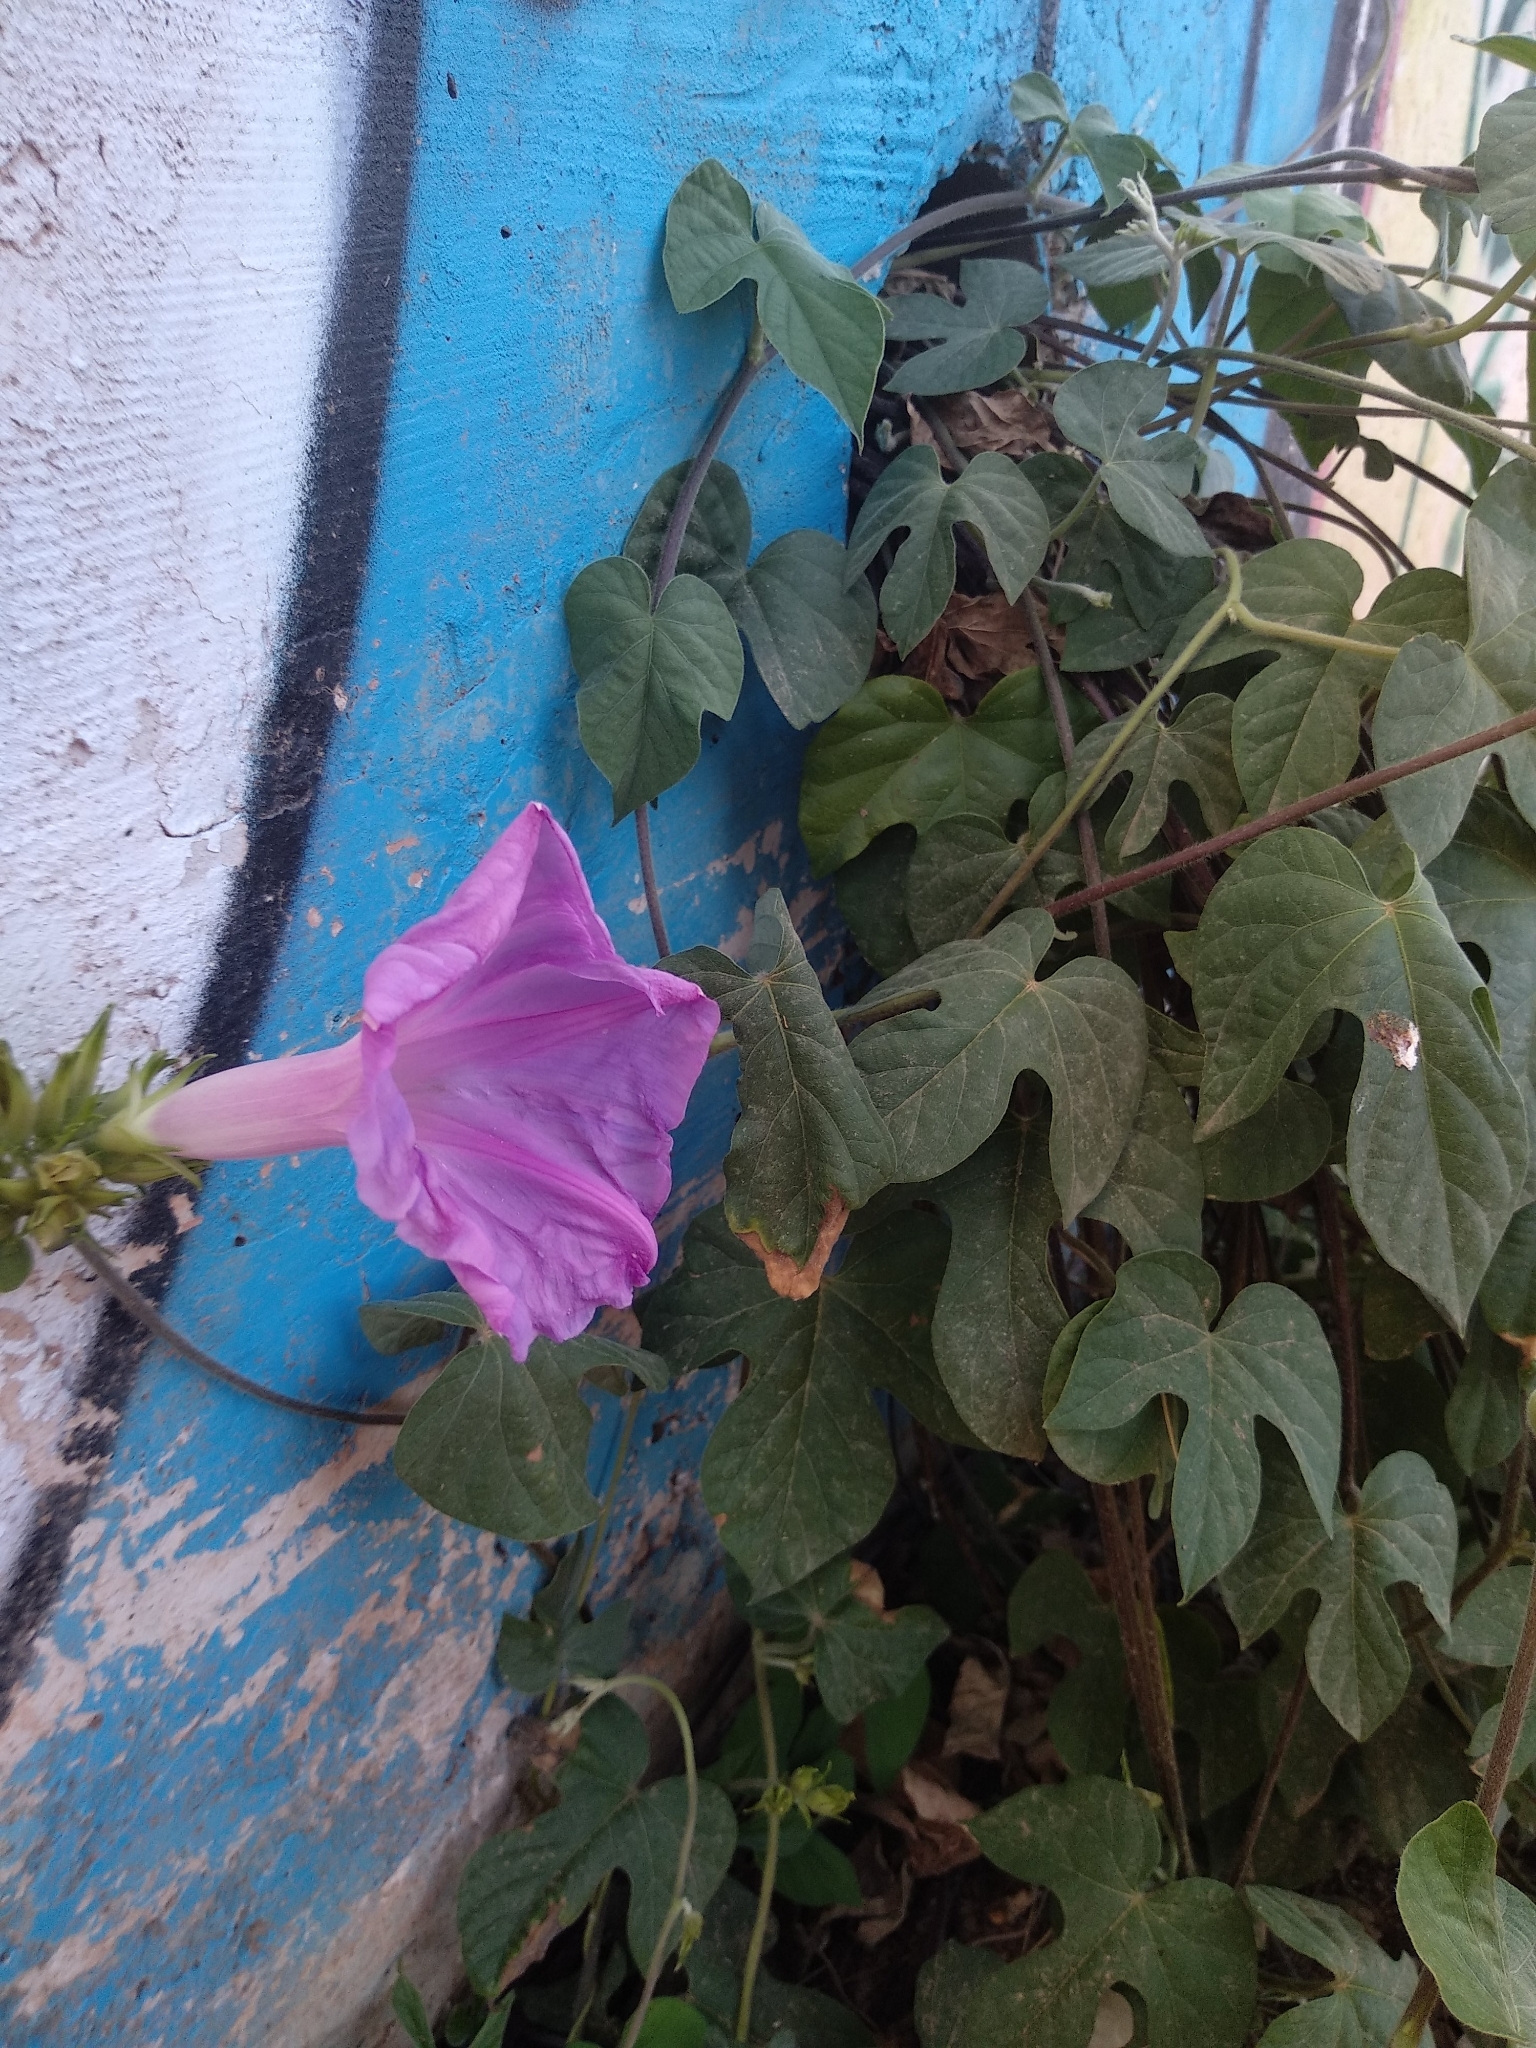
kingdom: Plantae
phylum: Tracheophyta
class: Magnoliopsida
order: Solanales
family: Convolvulaceae
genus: Ipomoea
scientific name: Ipomoea indica
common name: Blue dawnflower
